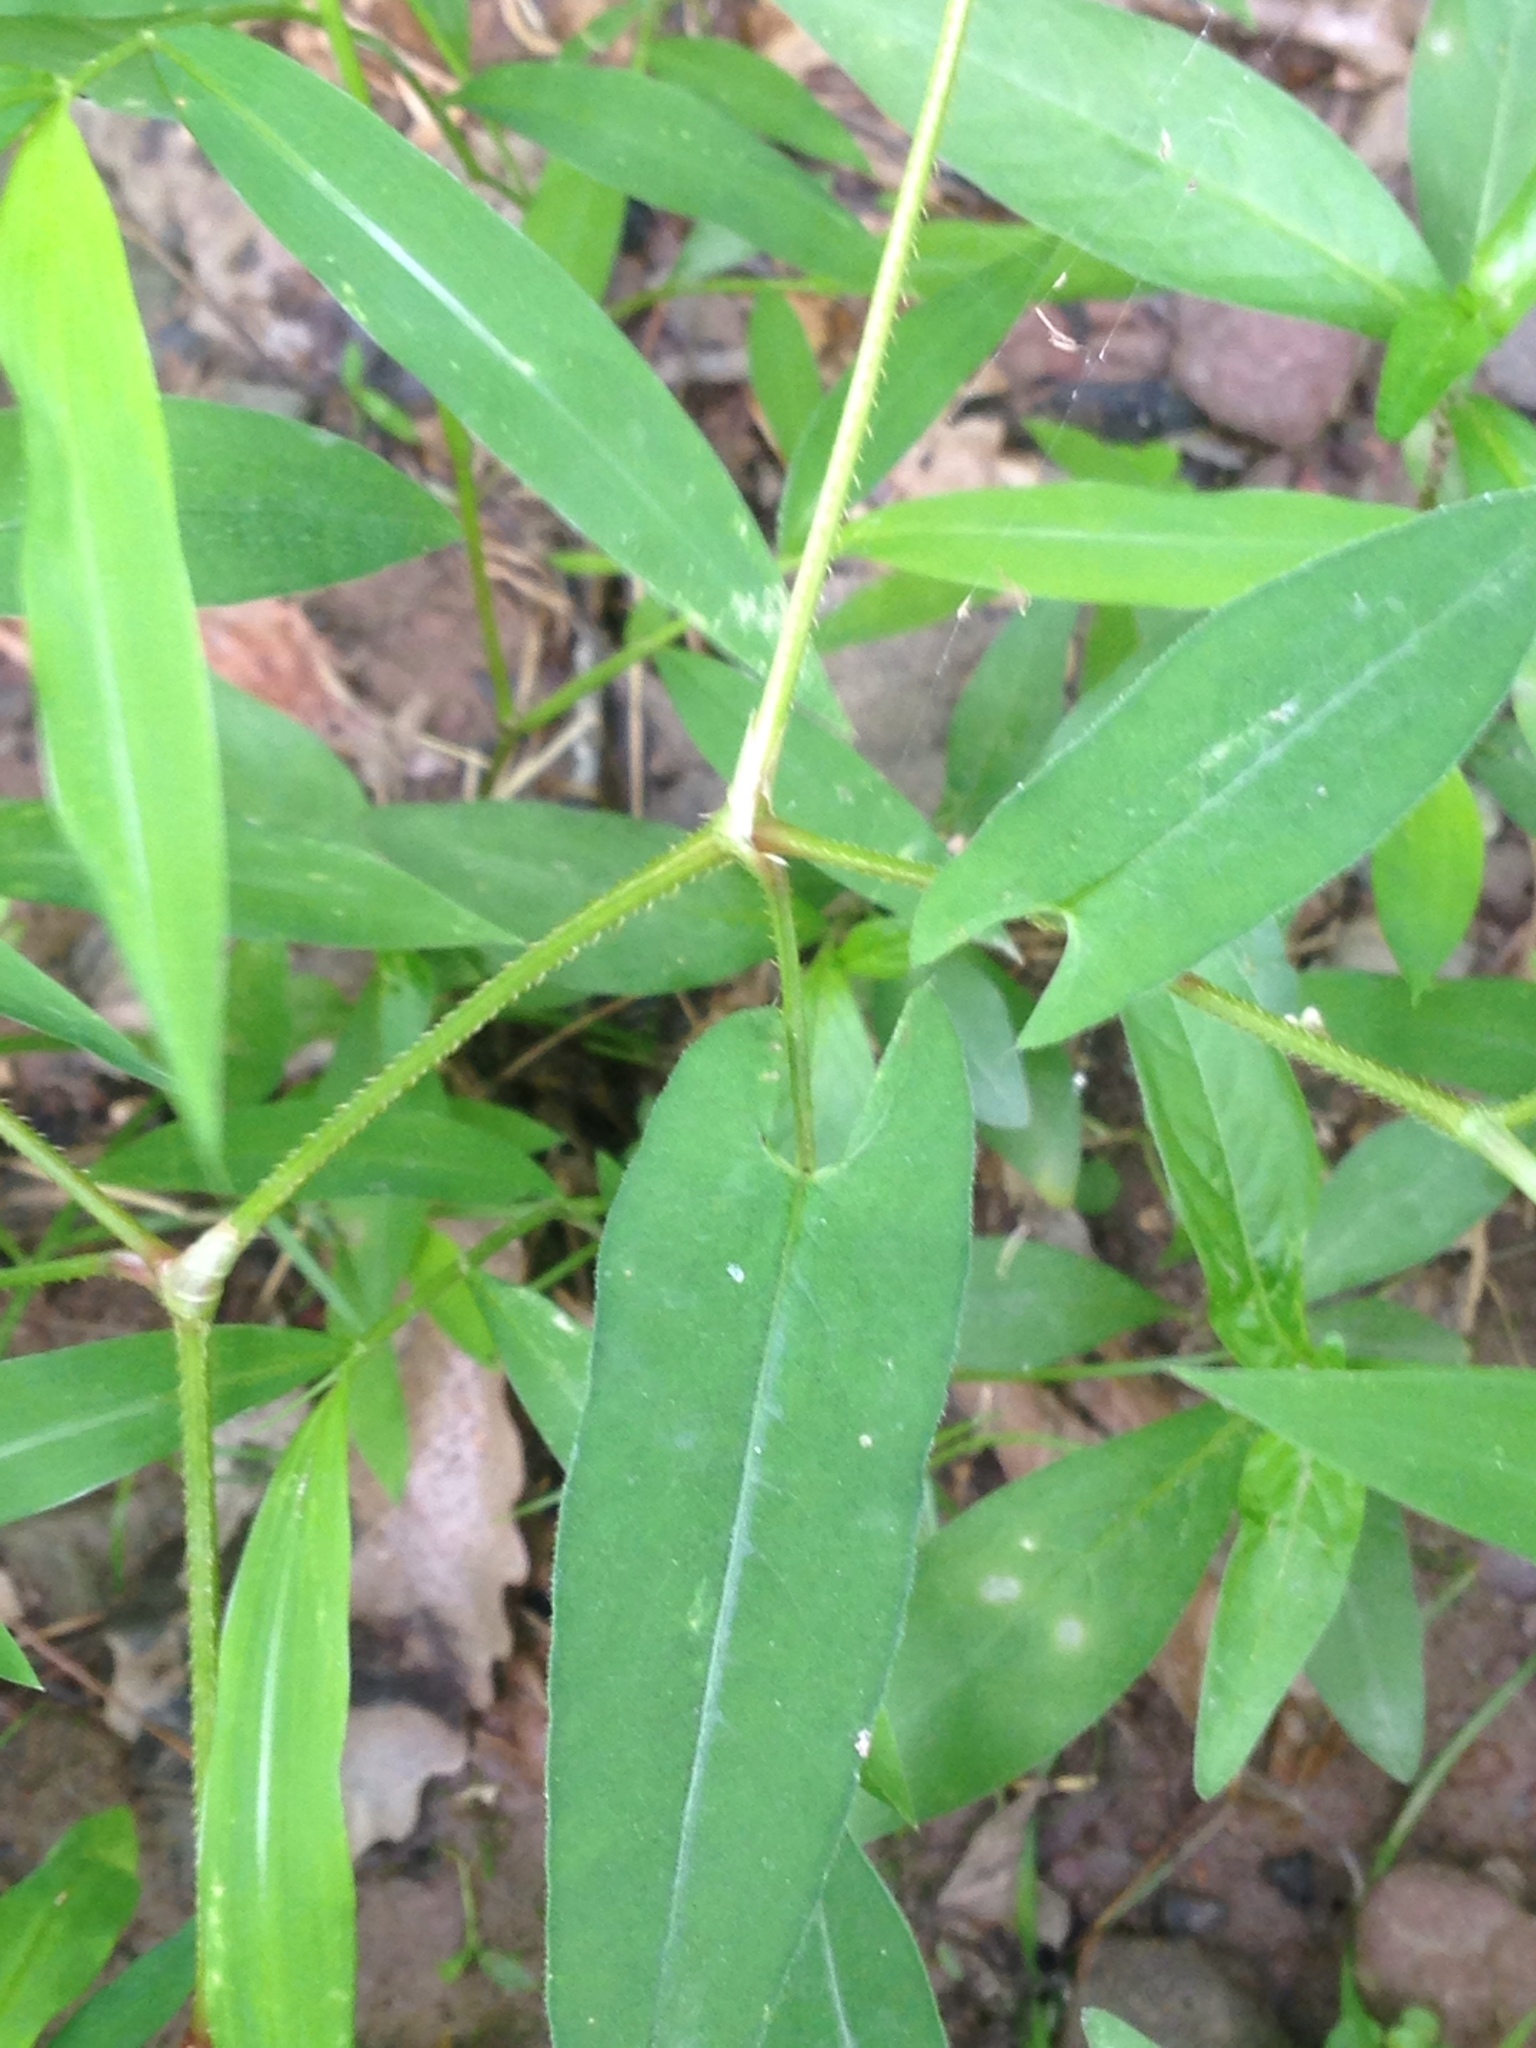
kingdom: Plantae
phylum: Tracheophyta
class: Magnoliopsida
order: Caryophyllales
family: Polygonaceae
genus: Persicaria
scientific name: Persicaria sagittata
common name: American tearthumb
